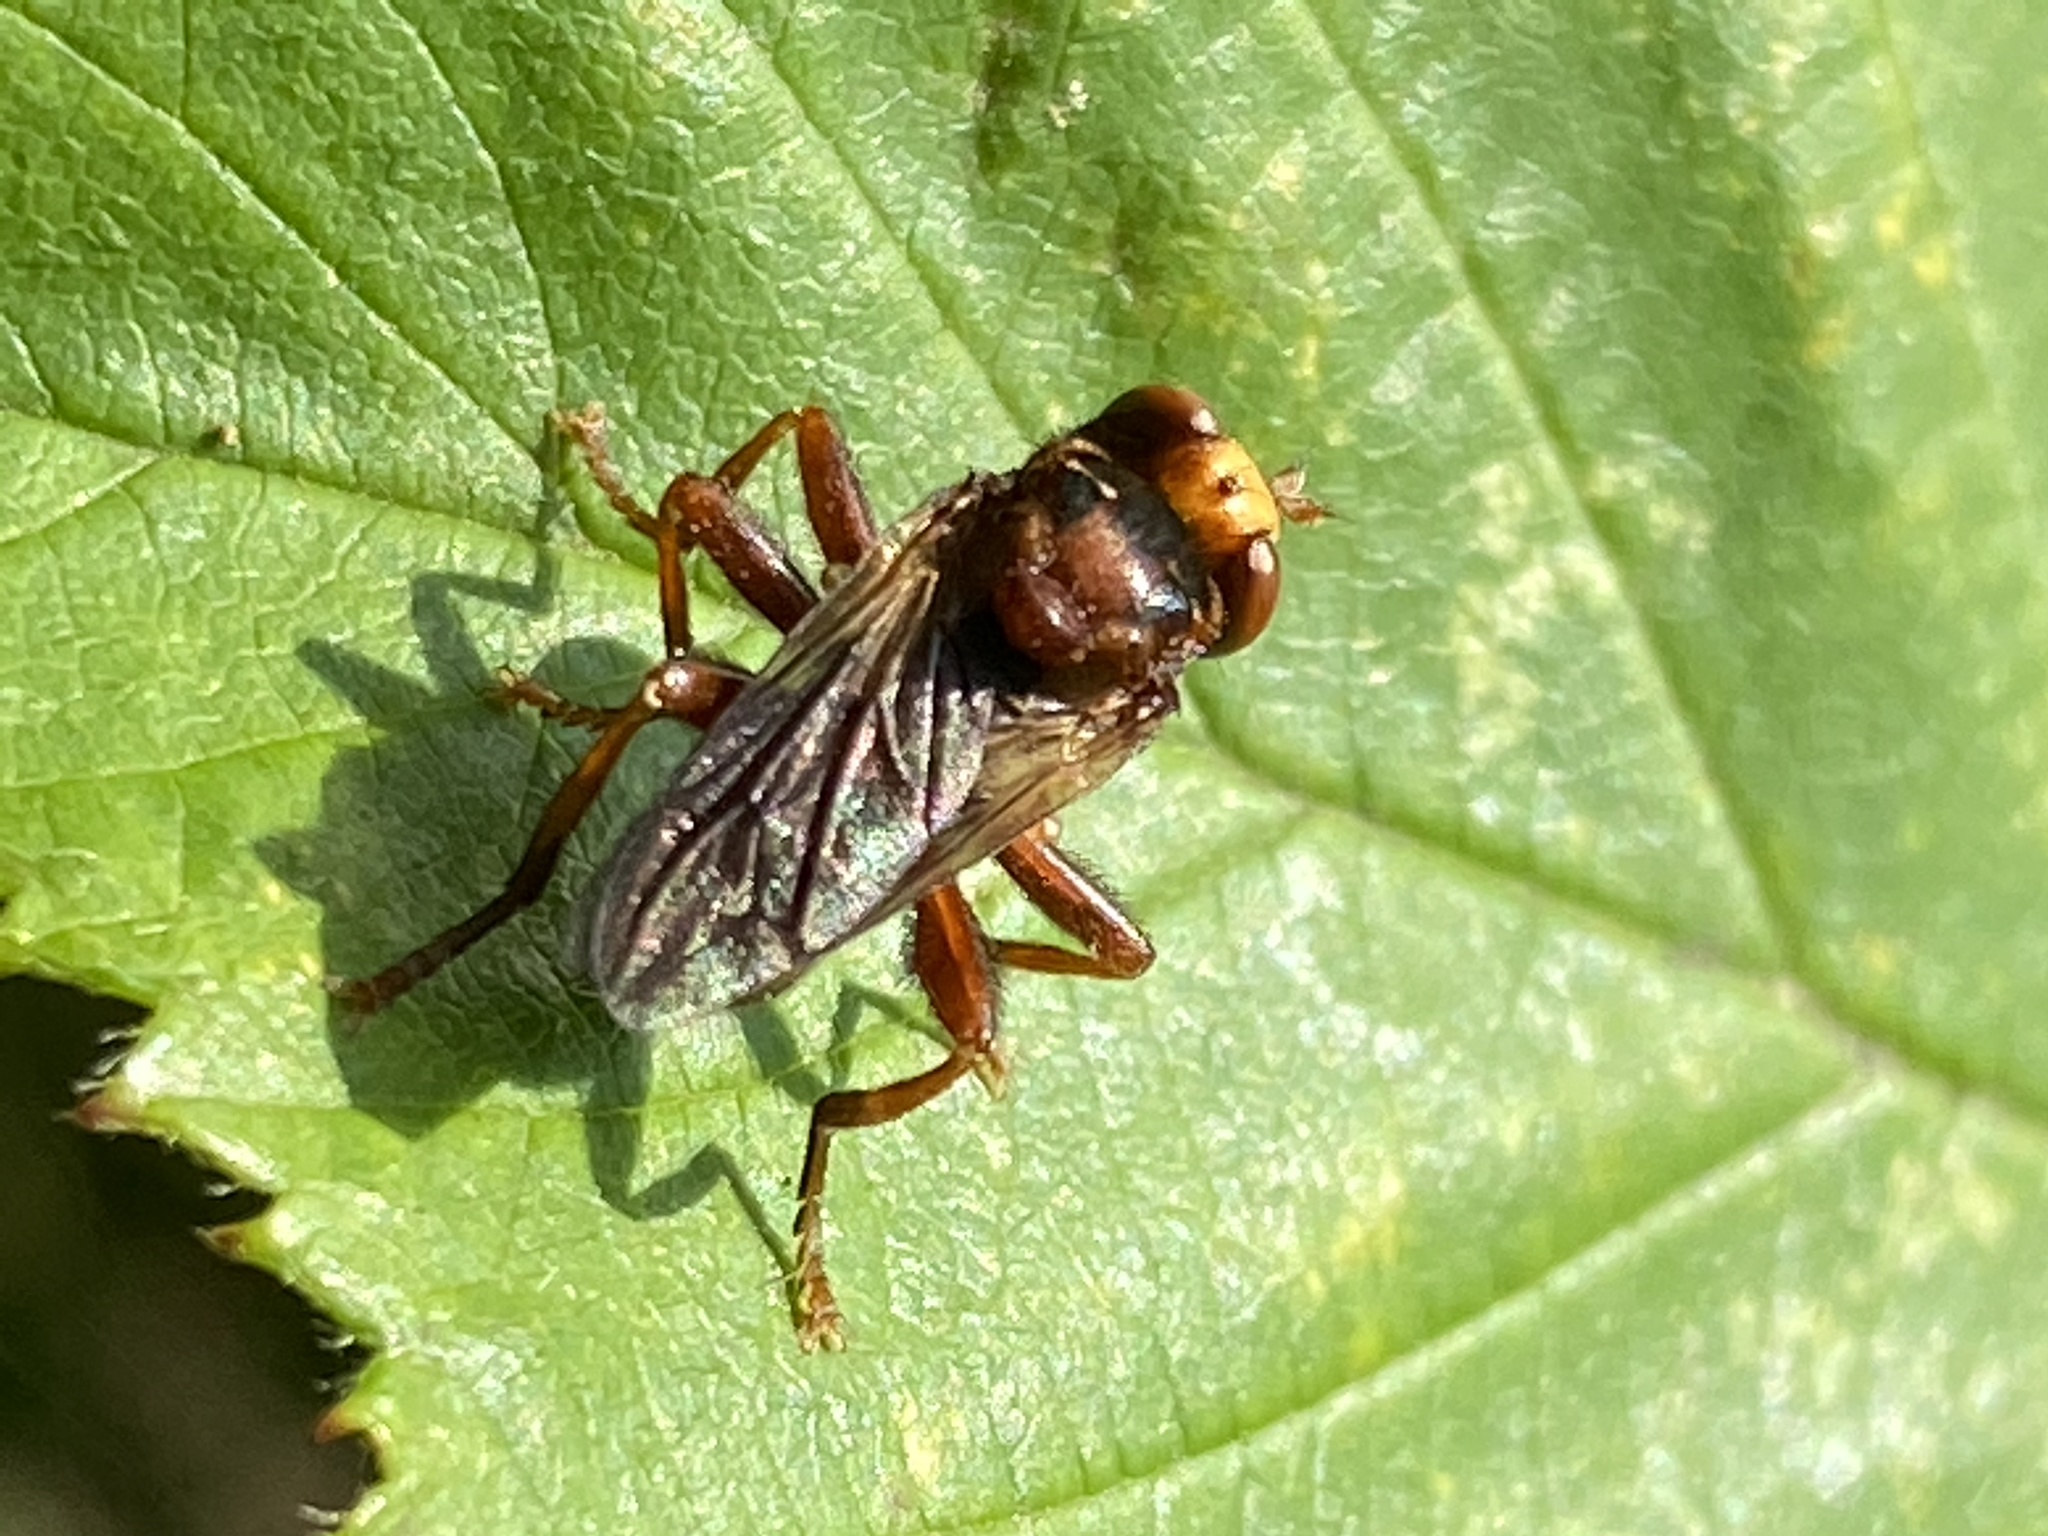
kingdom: Animalia
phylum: Arthropoda
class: Insecta
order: Diptera
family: Conopidae
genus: Sicus
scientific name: Sicus ferrugineus
